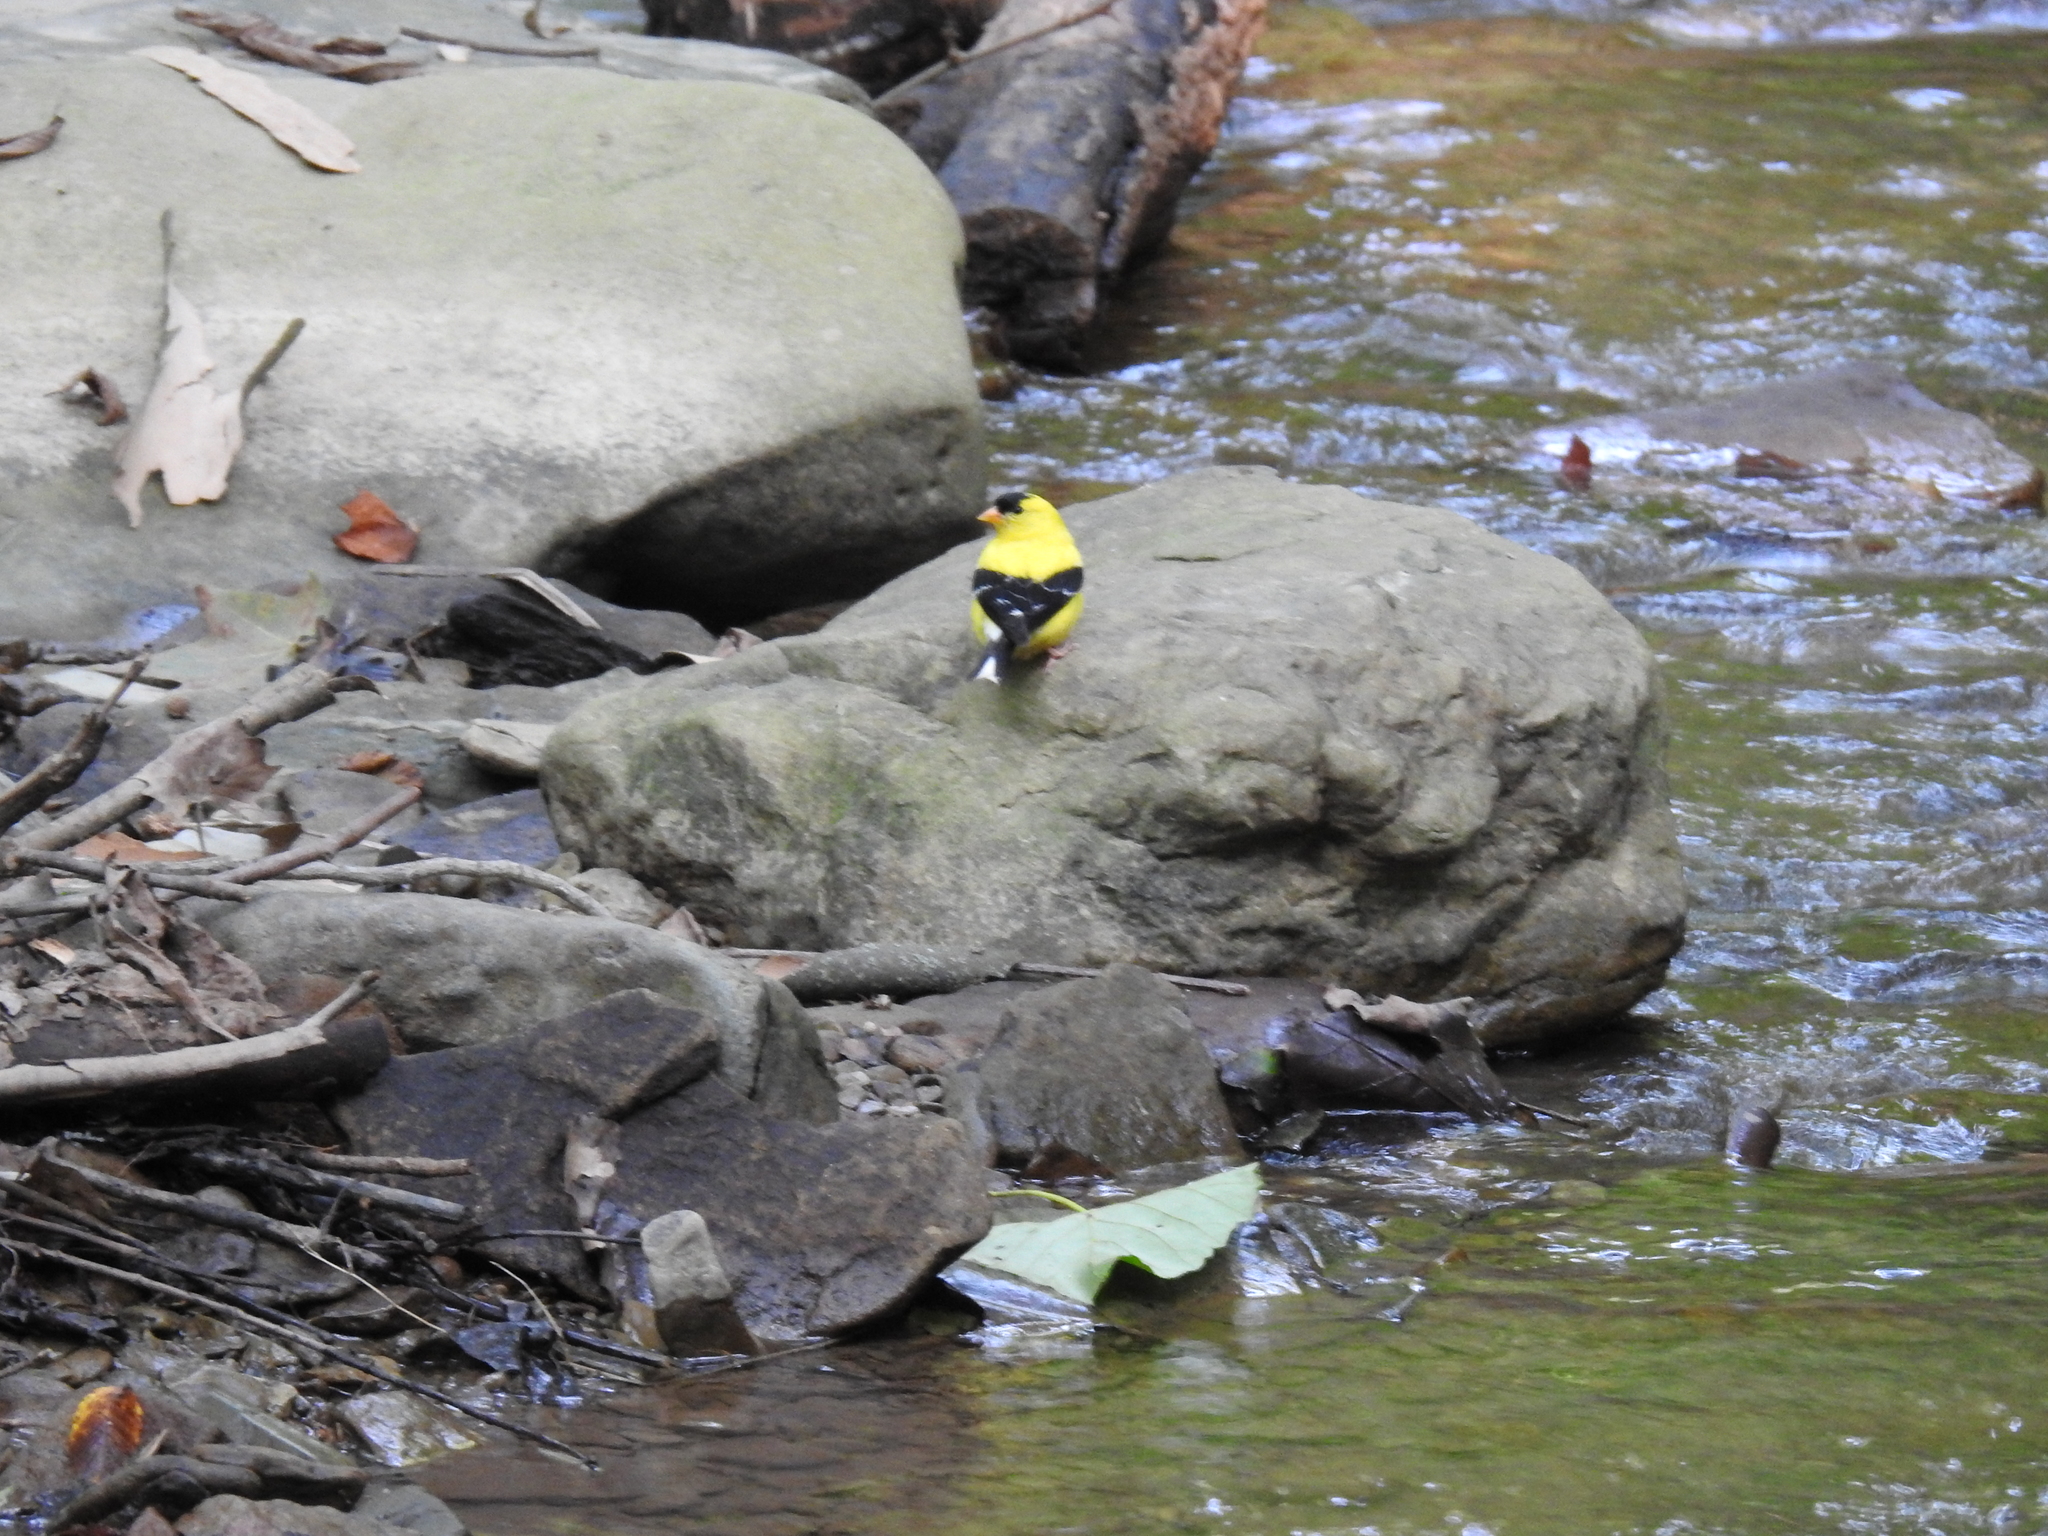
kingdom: Animalia
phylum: Chordata
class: Aves
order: Passeriformes
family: Fringillidae
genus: Spinus
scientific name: Spinus tristis
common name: American goldfinch
